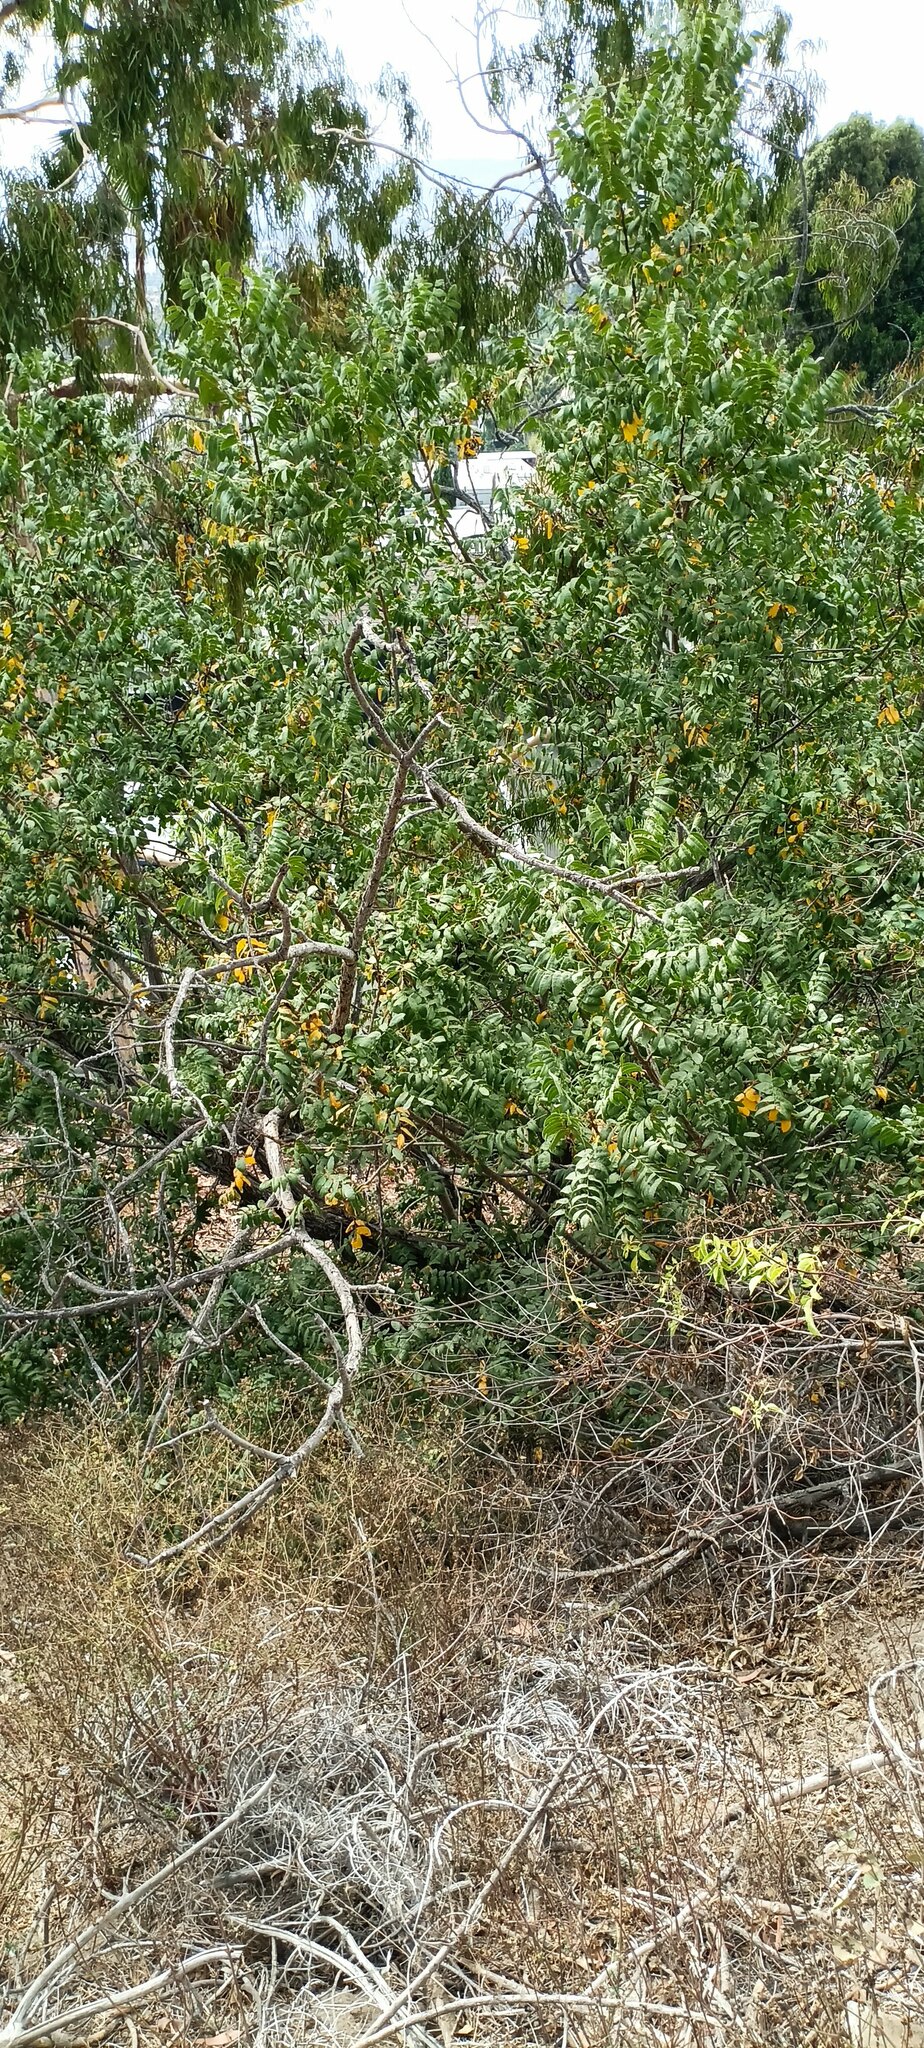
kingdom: Plantae
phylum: Tracheophyta
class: Magnoliopsida
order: Fagales
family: Juglandaceae
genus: Juglans
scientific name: Juglans californica
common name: Southern california black walnut
